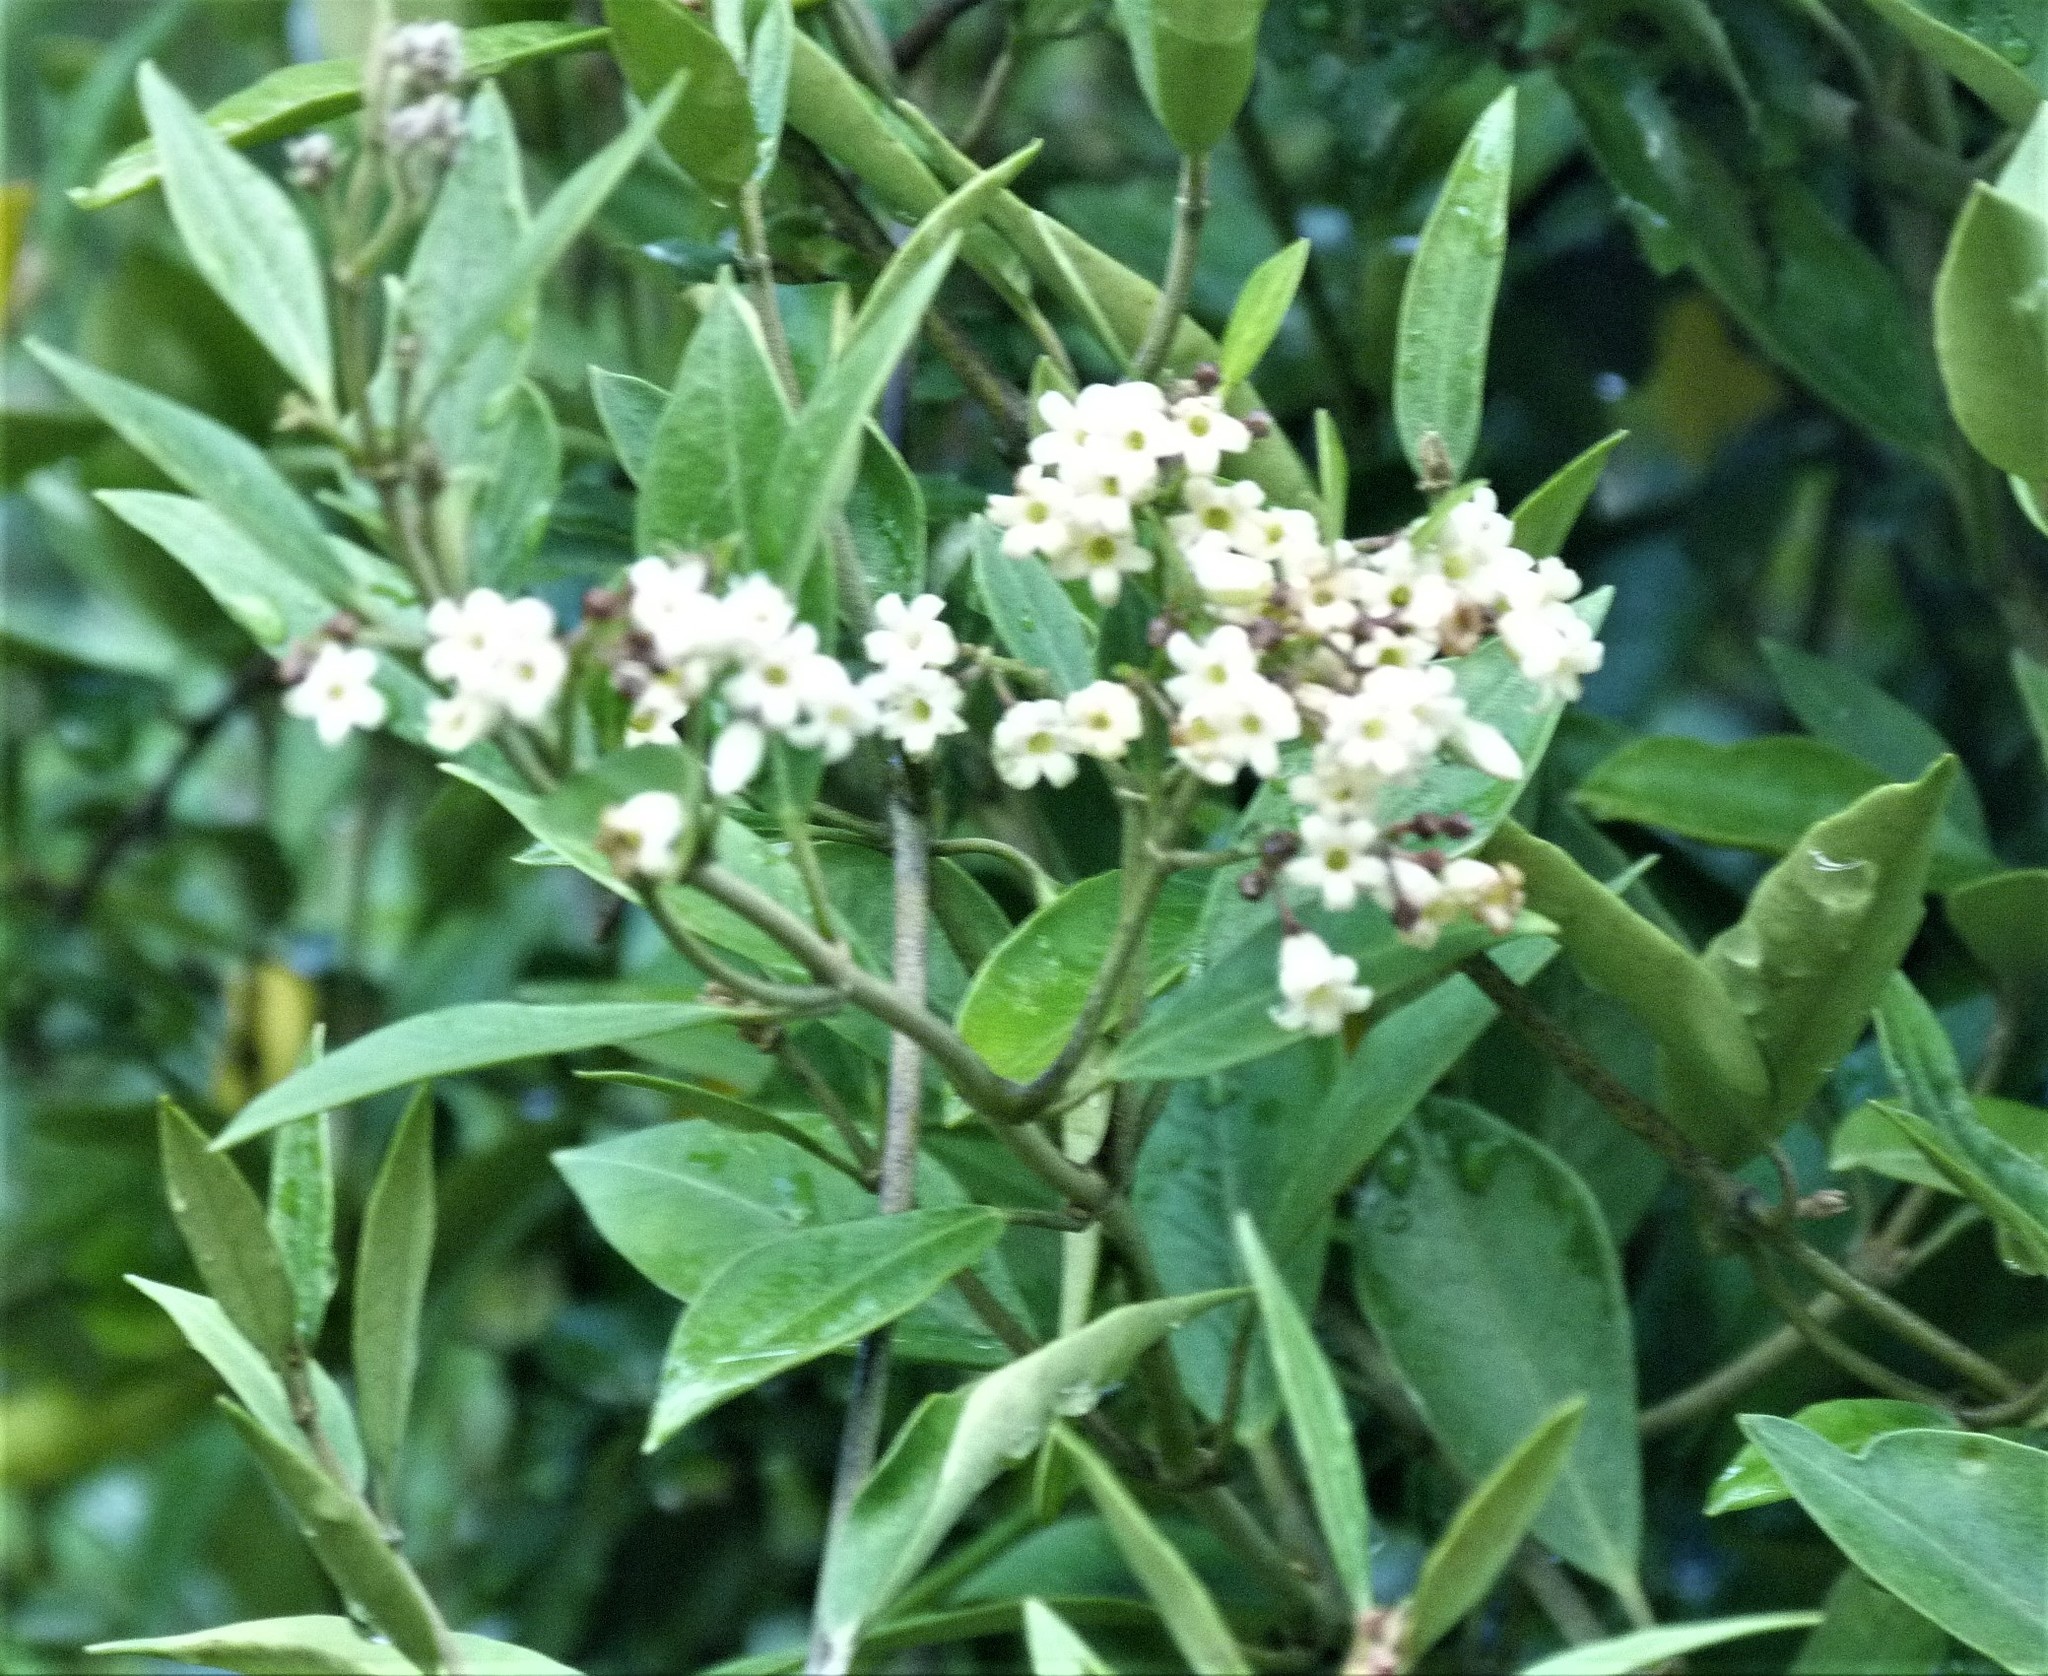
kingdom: Plantae
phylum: Tracheophyta
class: Magnoliopsida
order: Gentianales
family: Apocynaceae
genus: Parsonsia
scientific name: Parsonsia heterophylla
